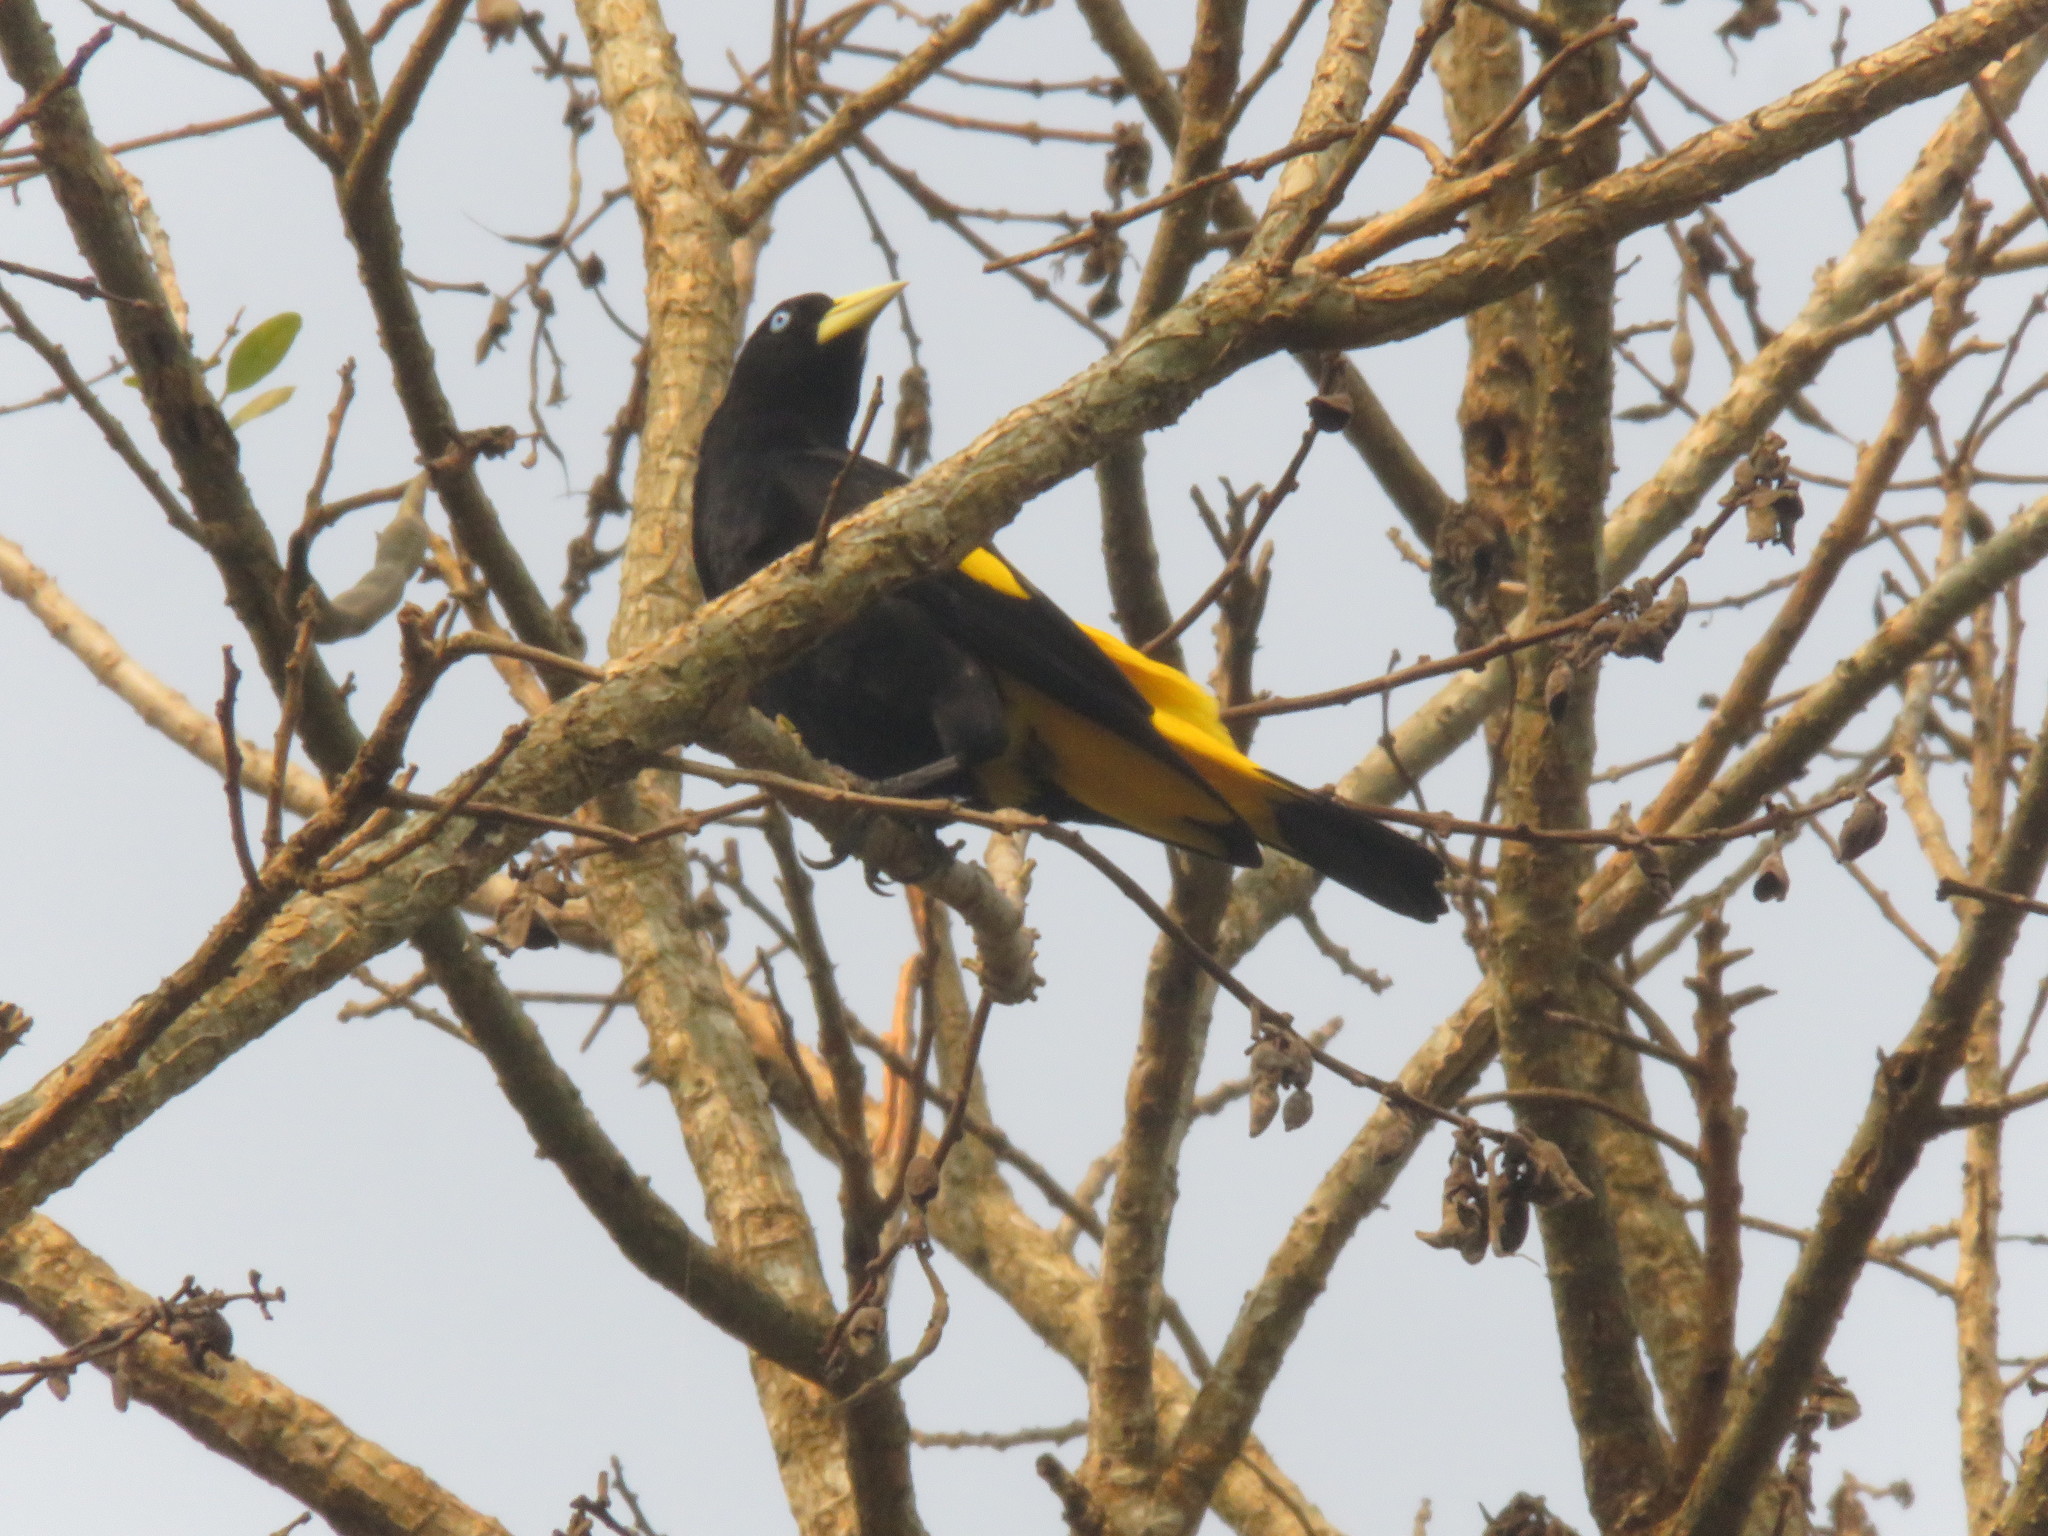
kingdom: Animalia
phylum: Chordata
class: Aves
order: Passeriformes
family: Icteridae
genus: Cacicus
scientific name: Cacicus cela
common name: Yellow-rumped cacique
